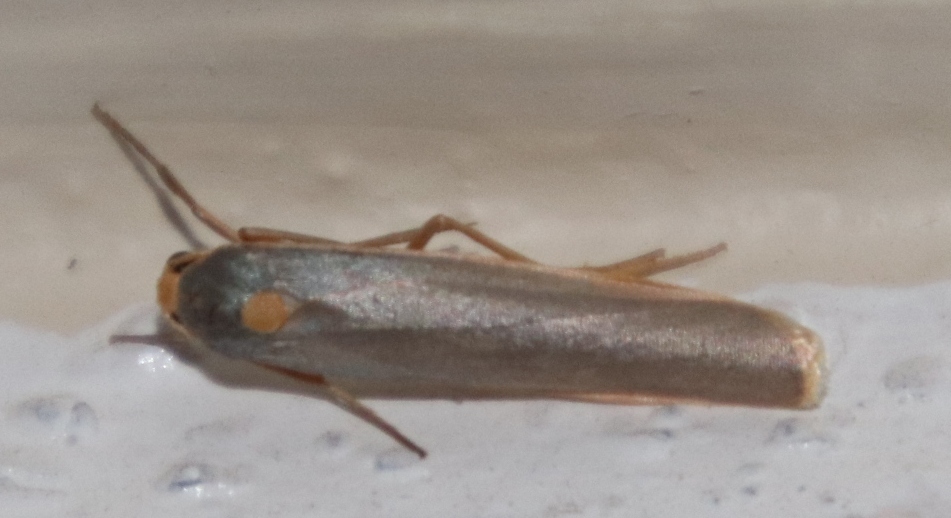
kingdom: Animalia
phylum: Arthropoda
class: Insecta
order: Lepidoptera
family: Erebidae
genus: Sozusa
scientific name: Sozusa scutellata
